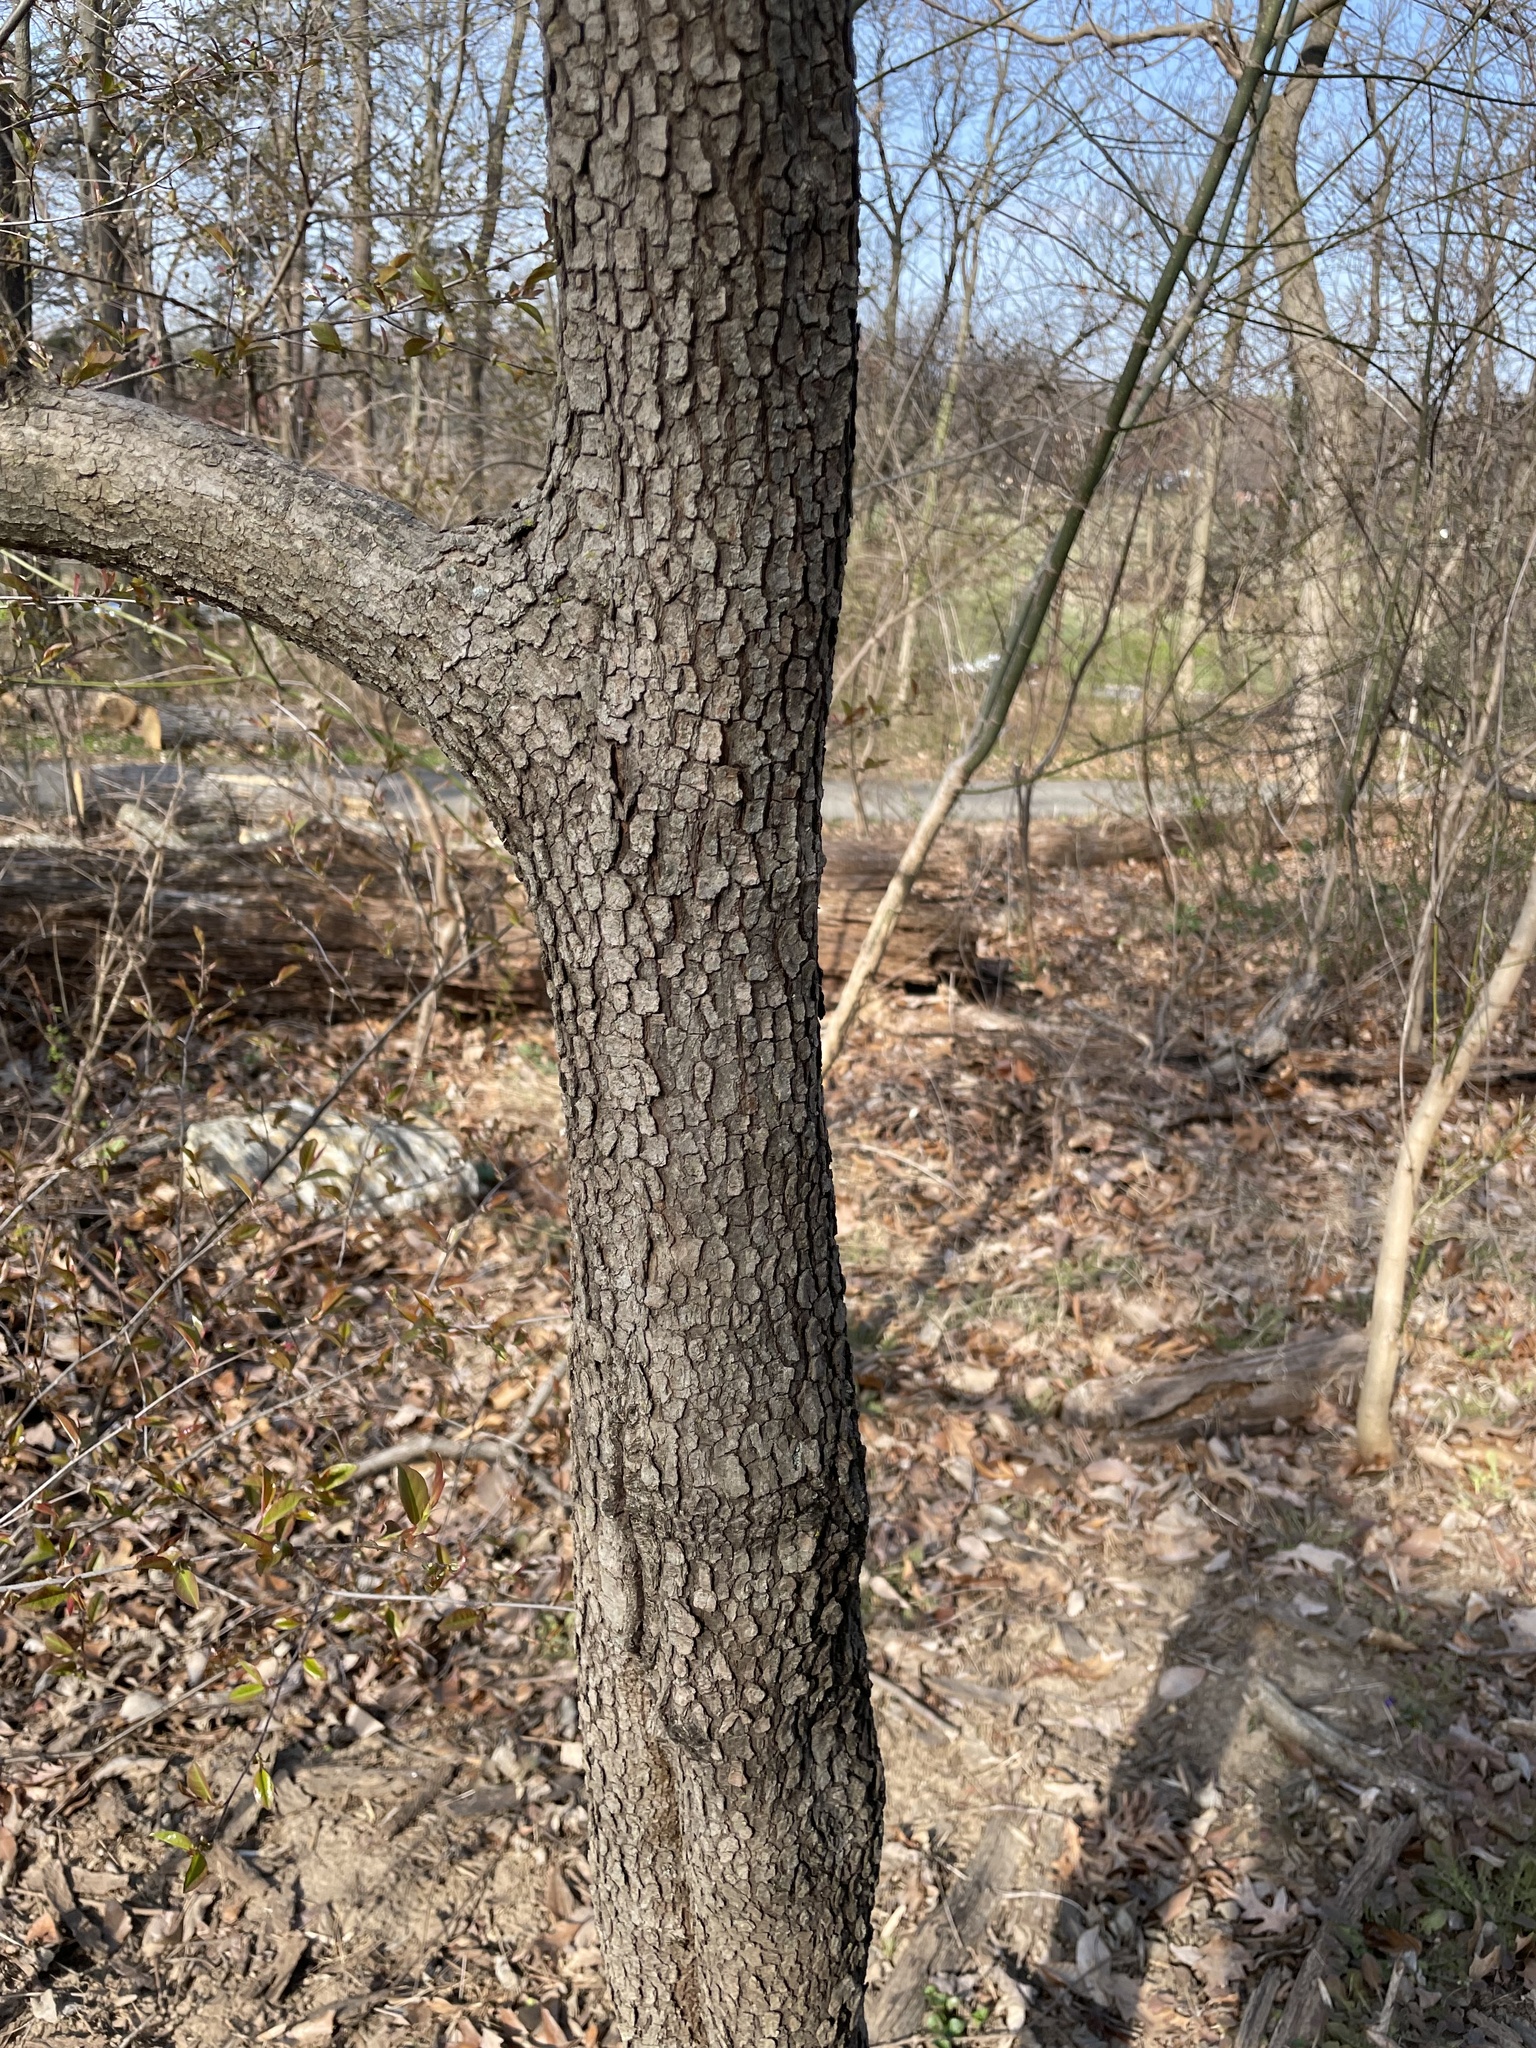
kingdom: Plantae
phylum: Tracheophyta
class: Magnoliopsida
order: Cornales
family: Cornaceae
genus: Cornus
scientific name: Cornus florida
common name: Flowering dogwood
